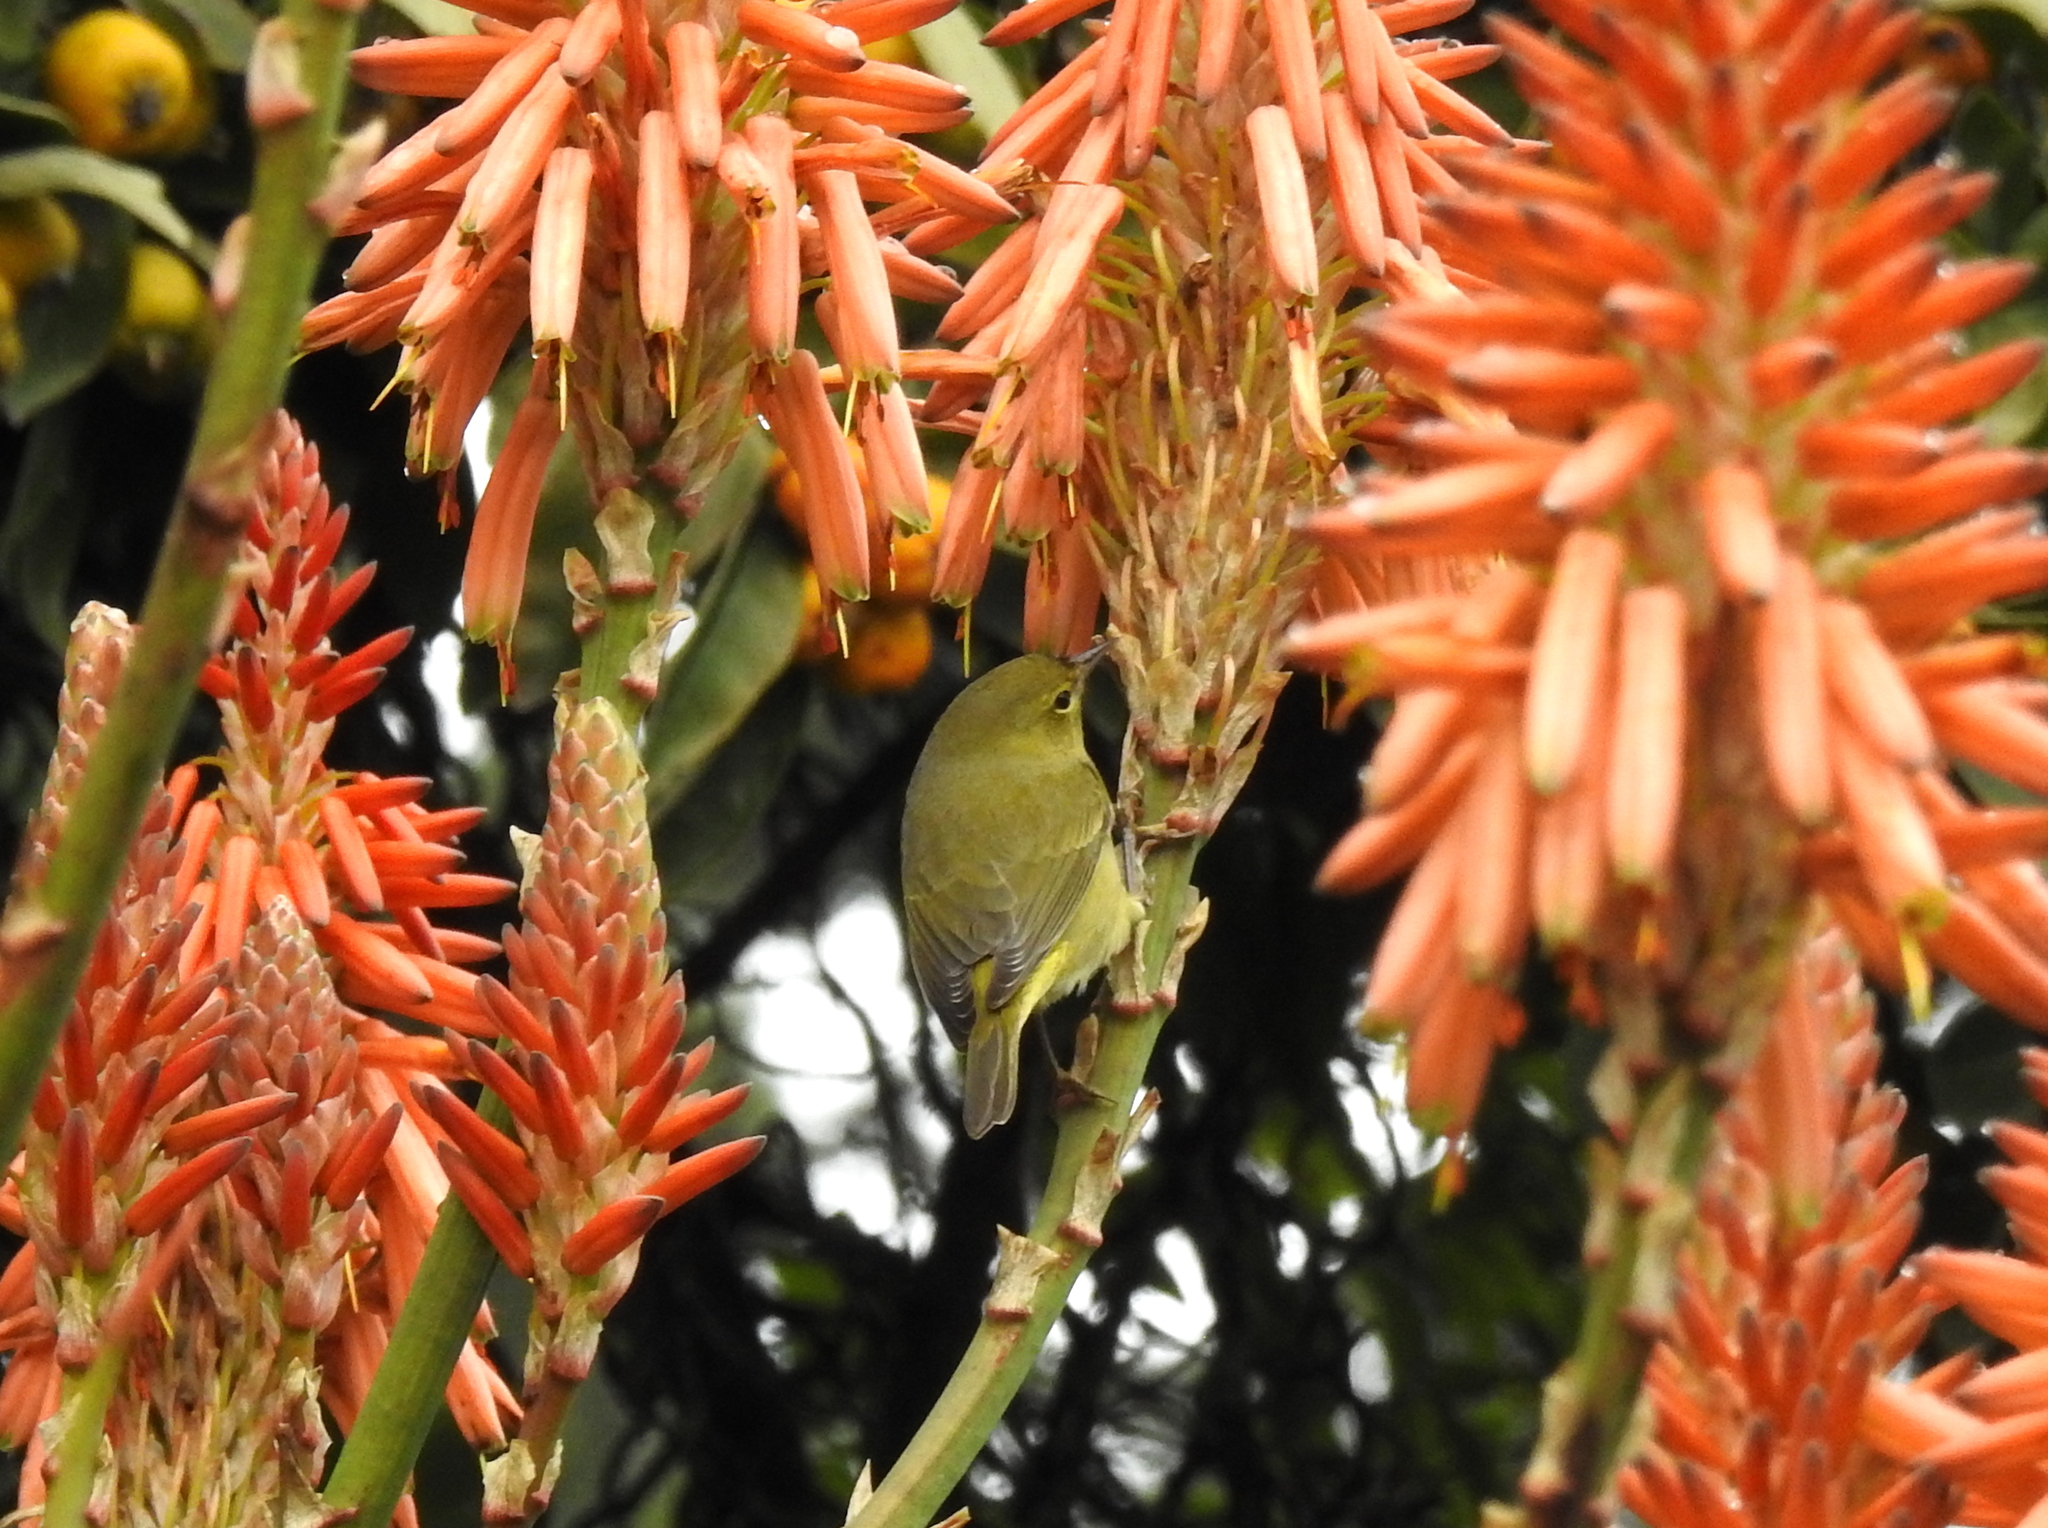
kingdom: Animalia
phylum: Chordata
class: Aves
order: Passeriformes
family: Parulidae
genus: Leiothlypis
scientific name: Leiothlypis celata
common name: Orange-crowned warbler
